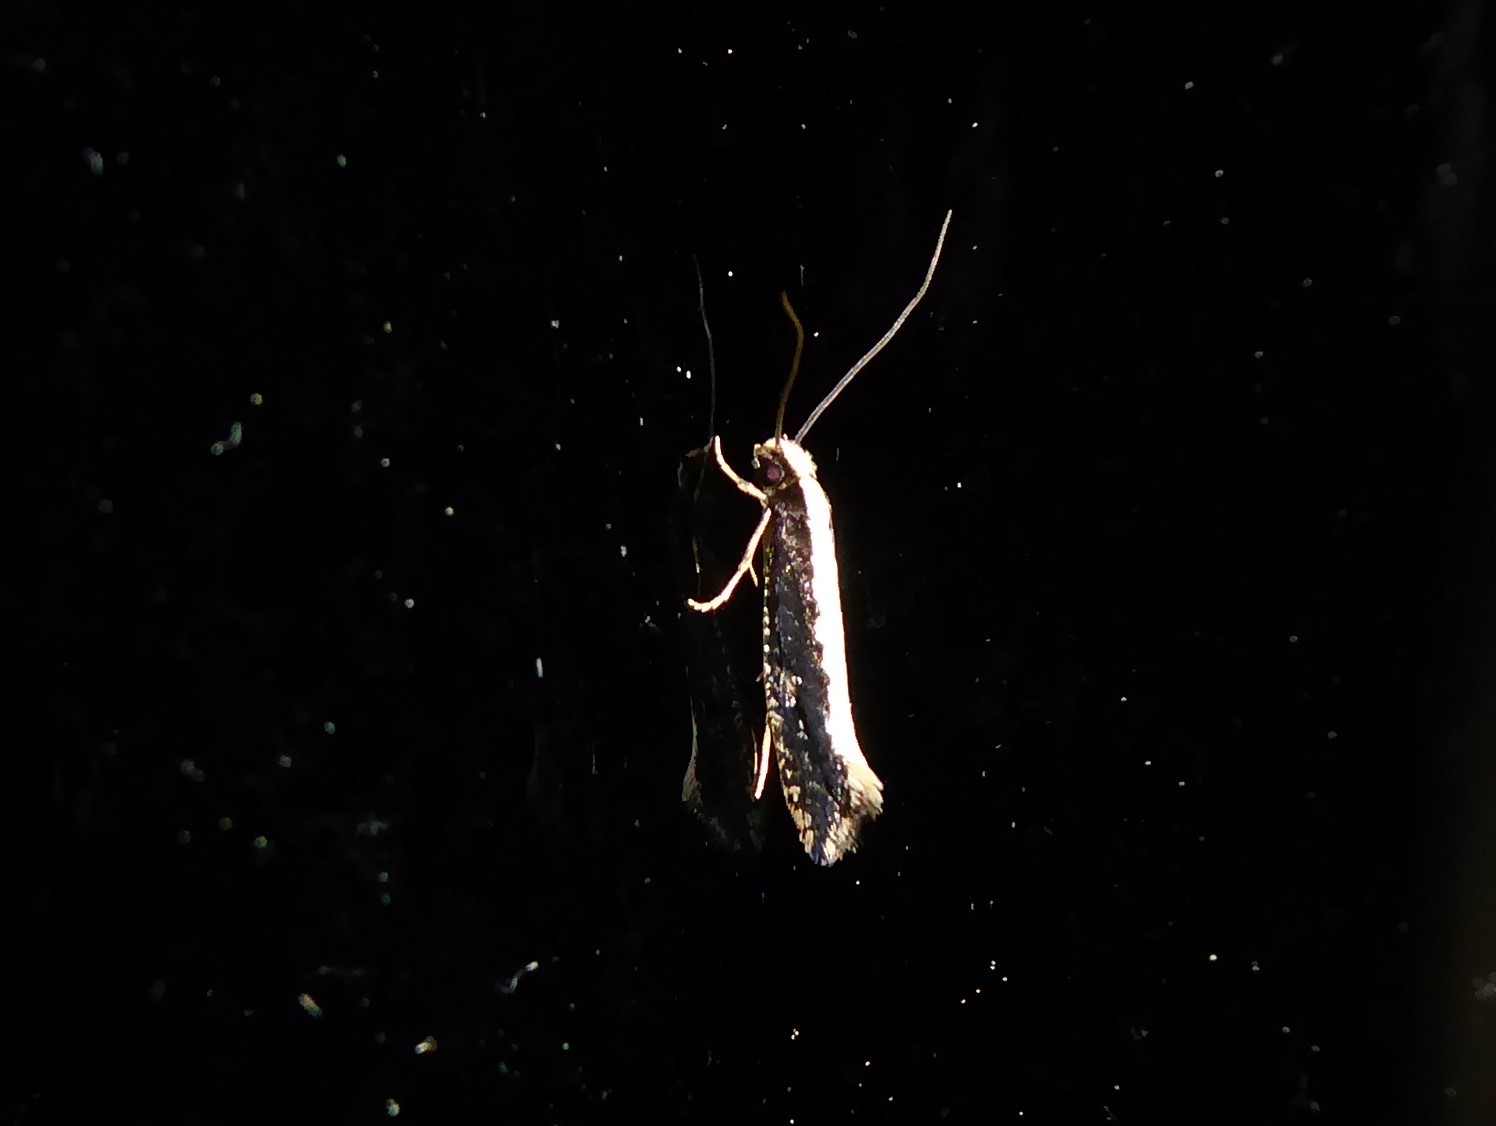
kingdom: Animalia
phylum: Arthropoda
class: Insecta
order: Lepidoptera
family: Tineidae
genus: Monopis
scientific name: Monopis ethelella
